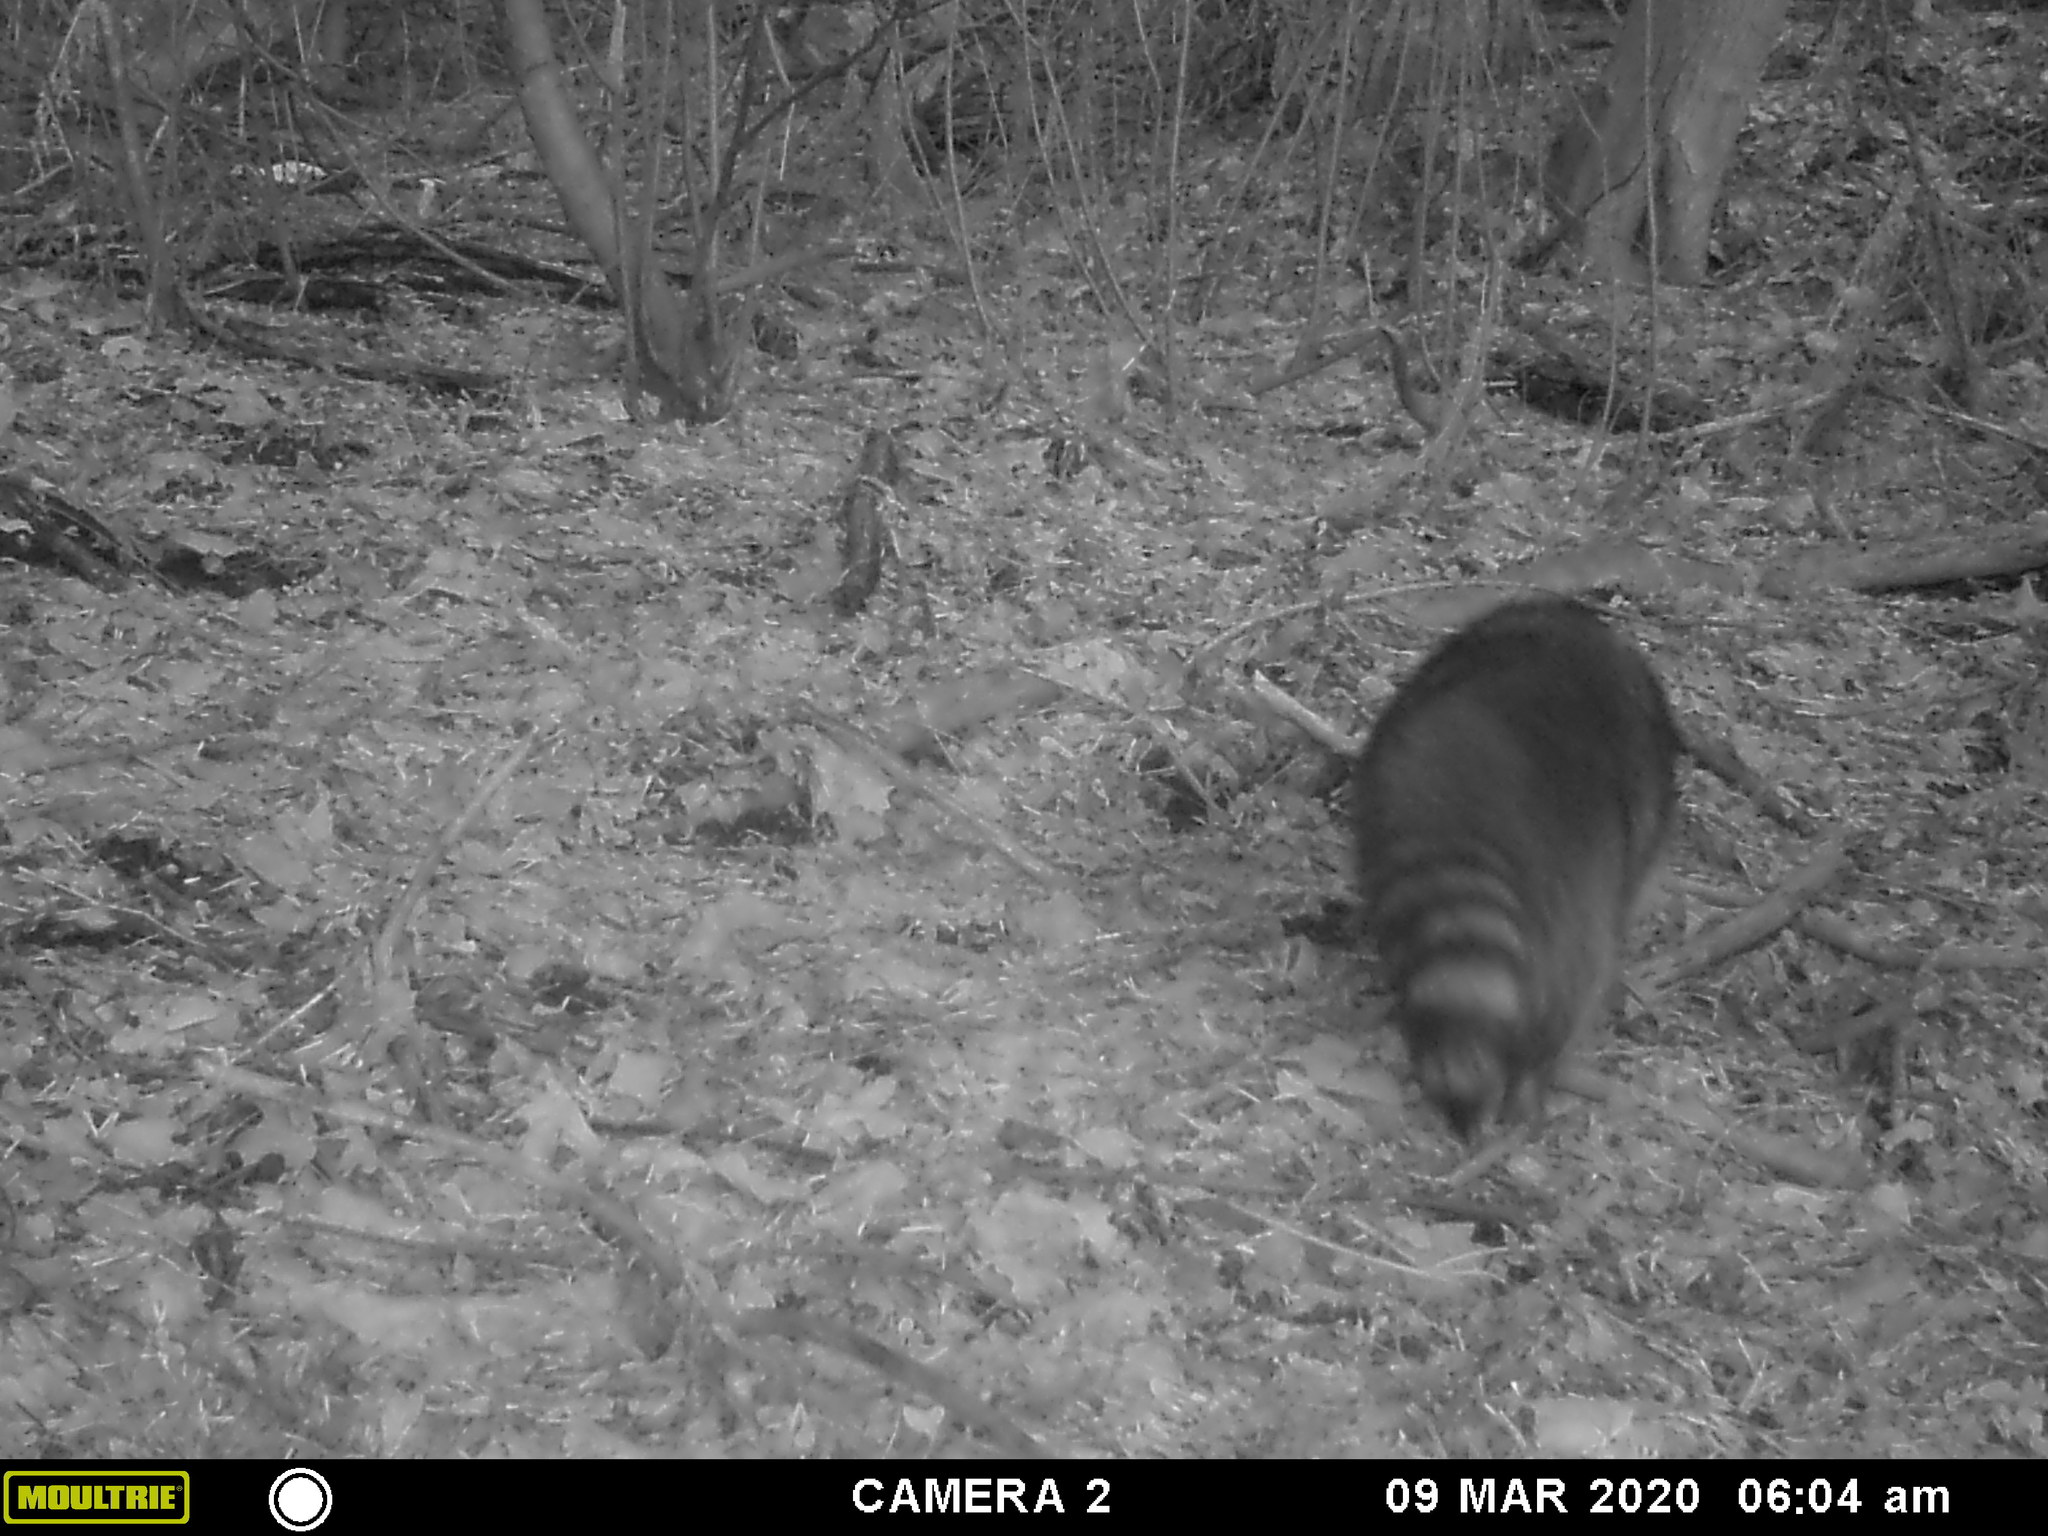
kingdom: Animalia
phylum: Chordata
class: Mammalia
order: Carnivora
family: Procyonidae
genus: Procyon
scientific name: Procyon lotor
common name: Raccoon
